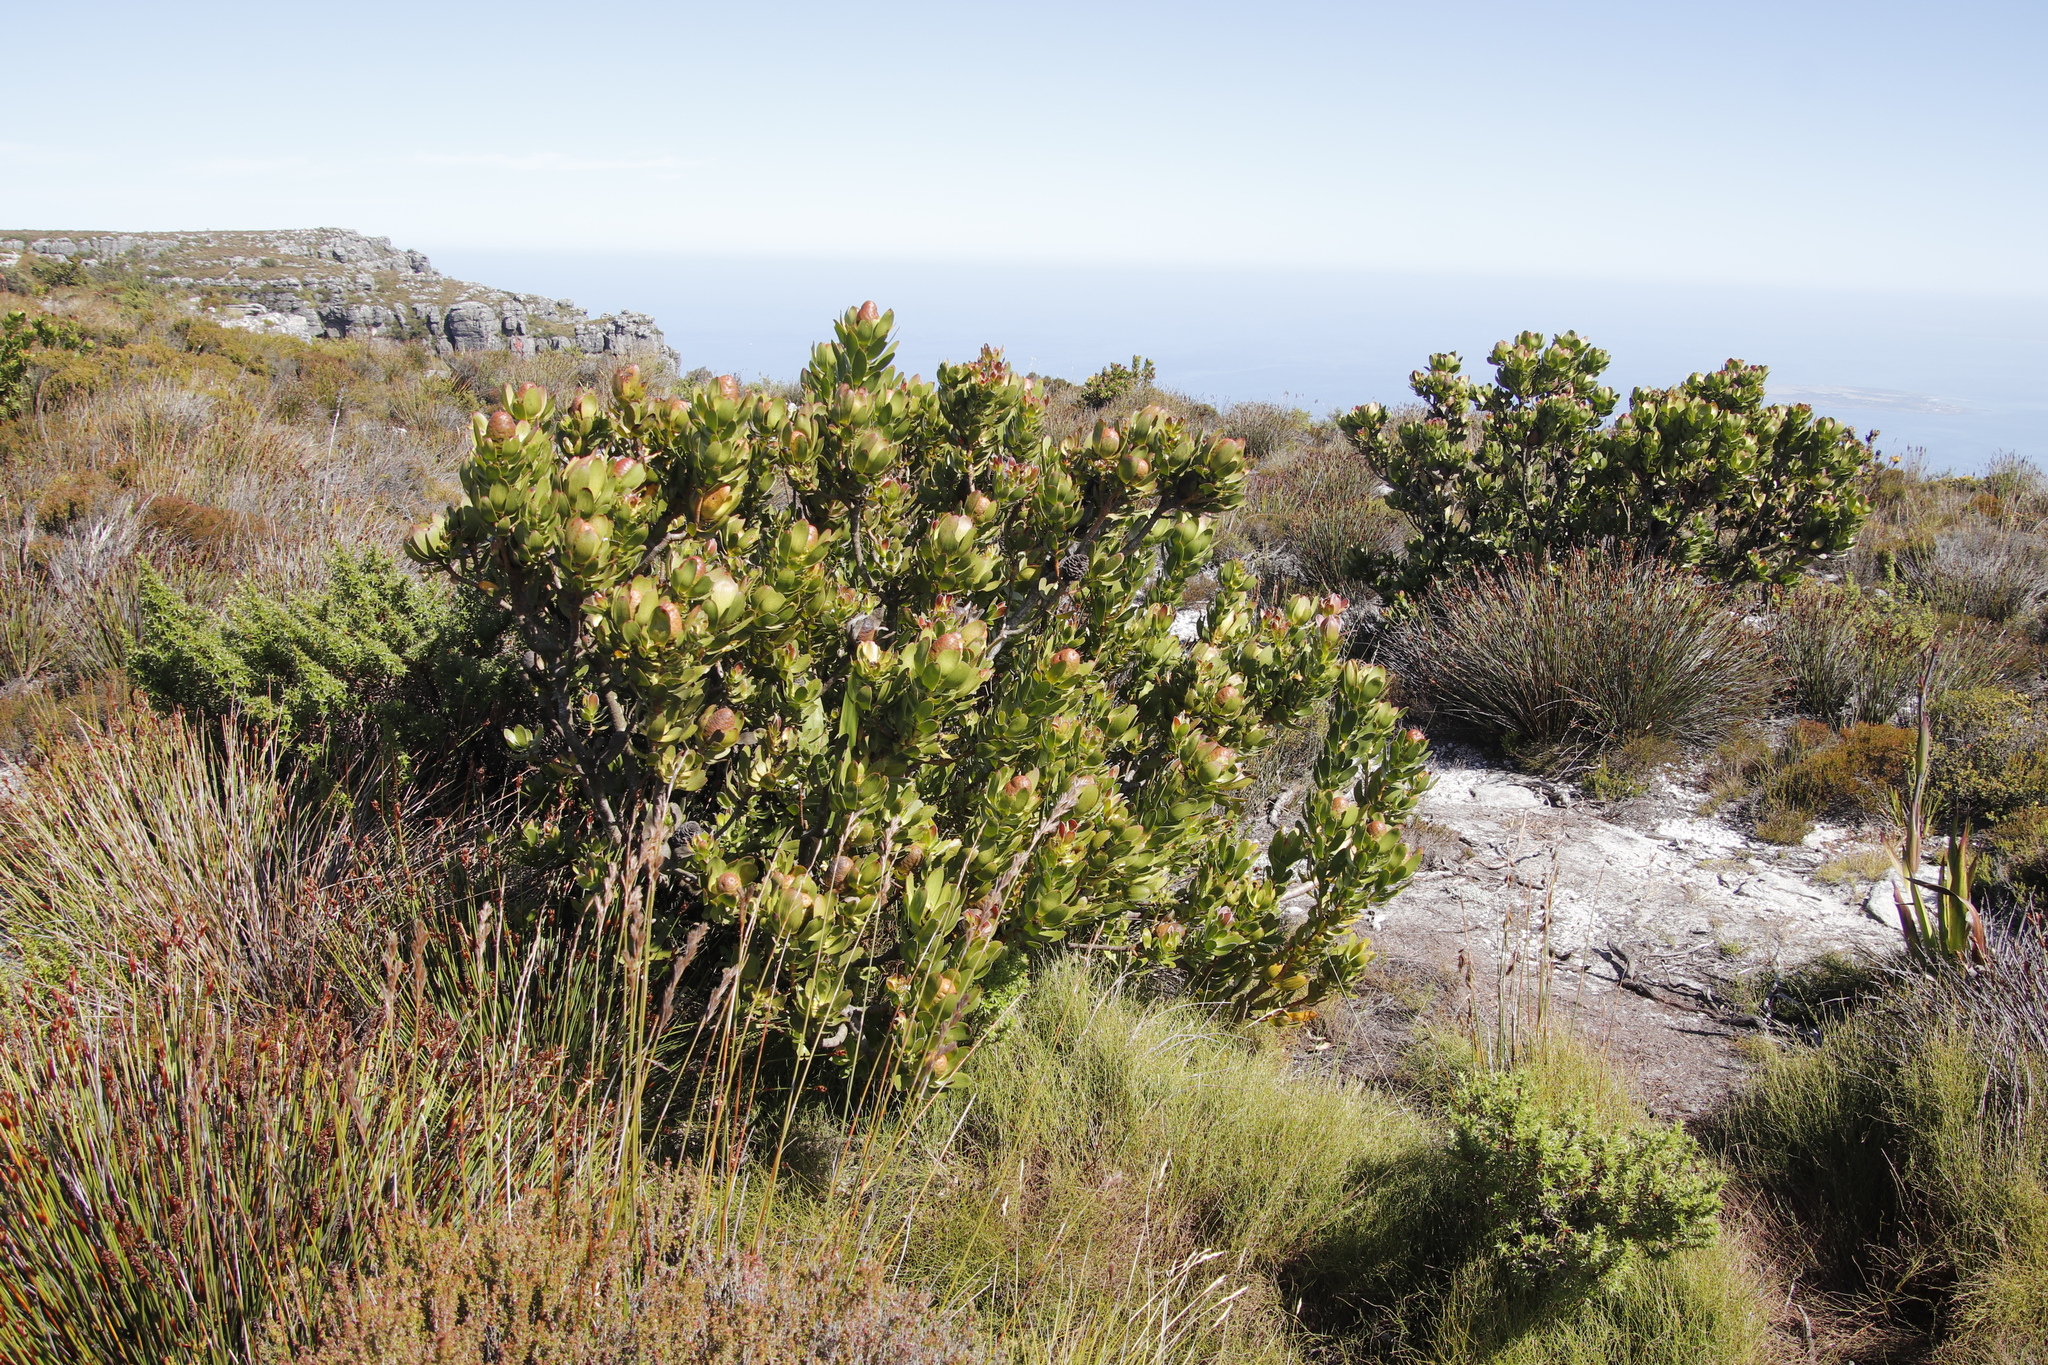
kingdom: Plantae
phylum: Tracheophyta
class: Magnoliopsida
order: Proteales
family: Proteaceae
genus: Leucadendron
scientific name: Leucadendron strobilinum
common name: Mountain rose
